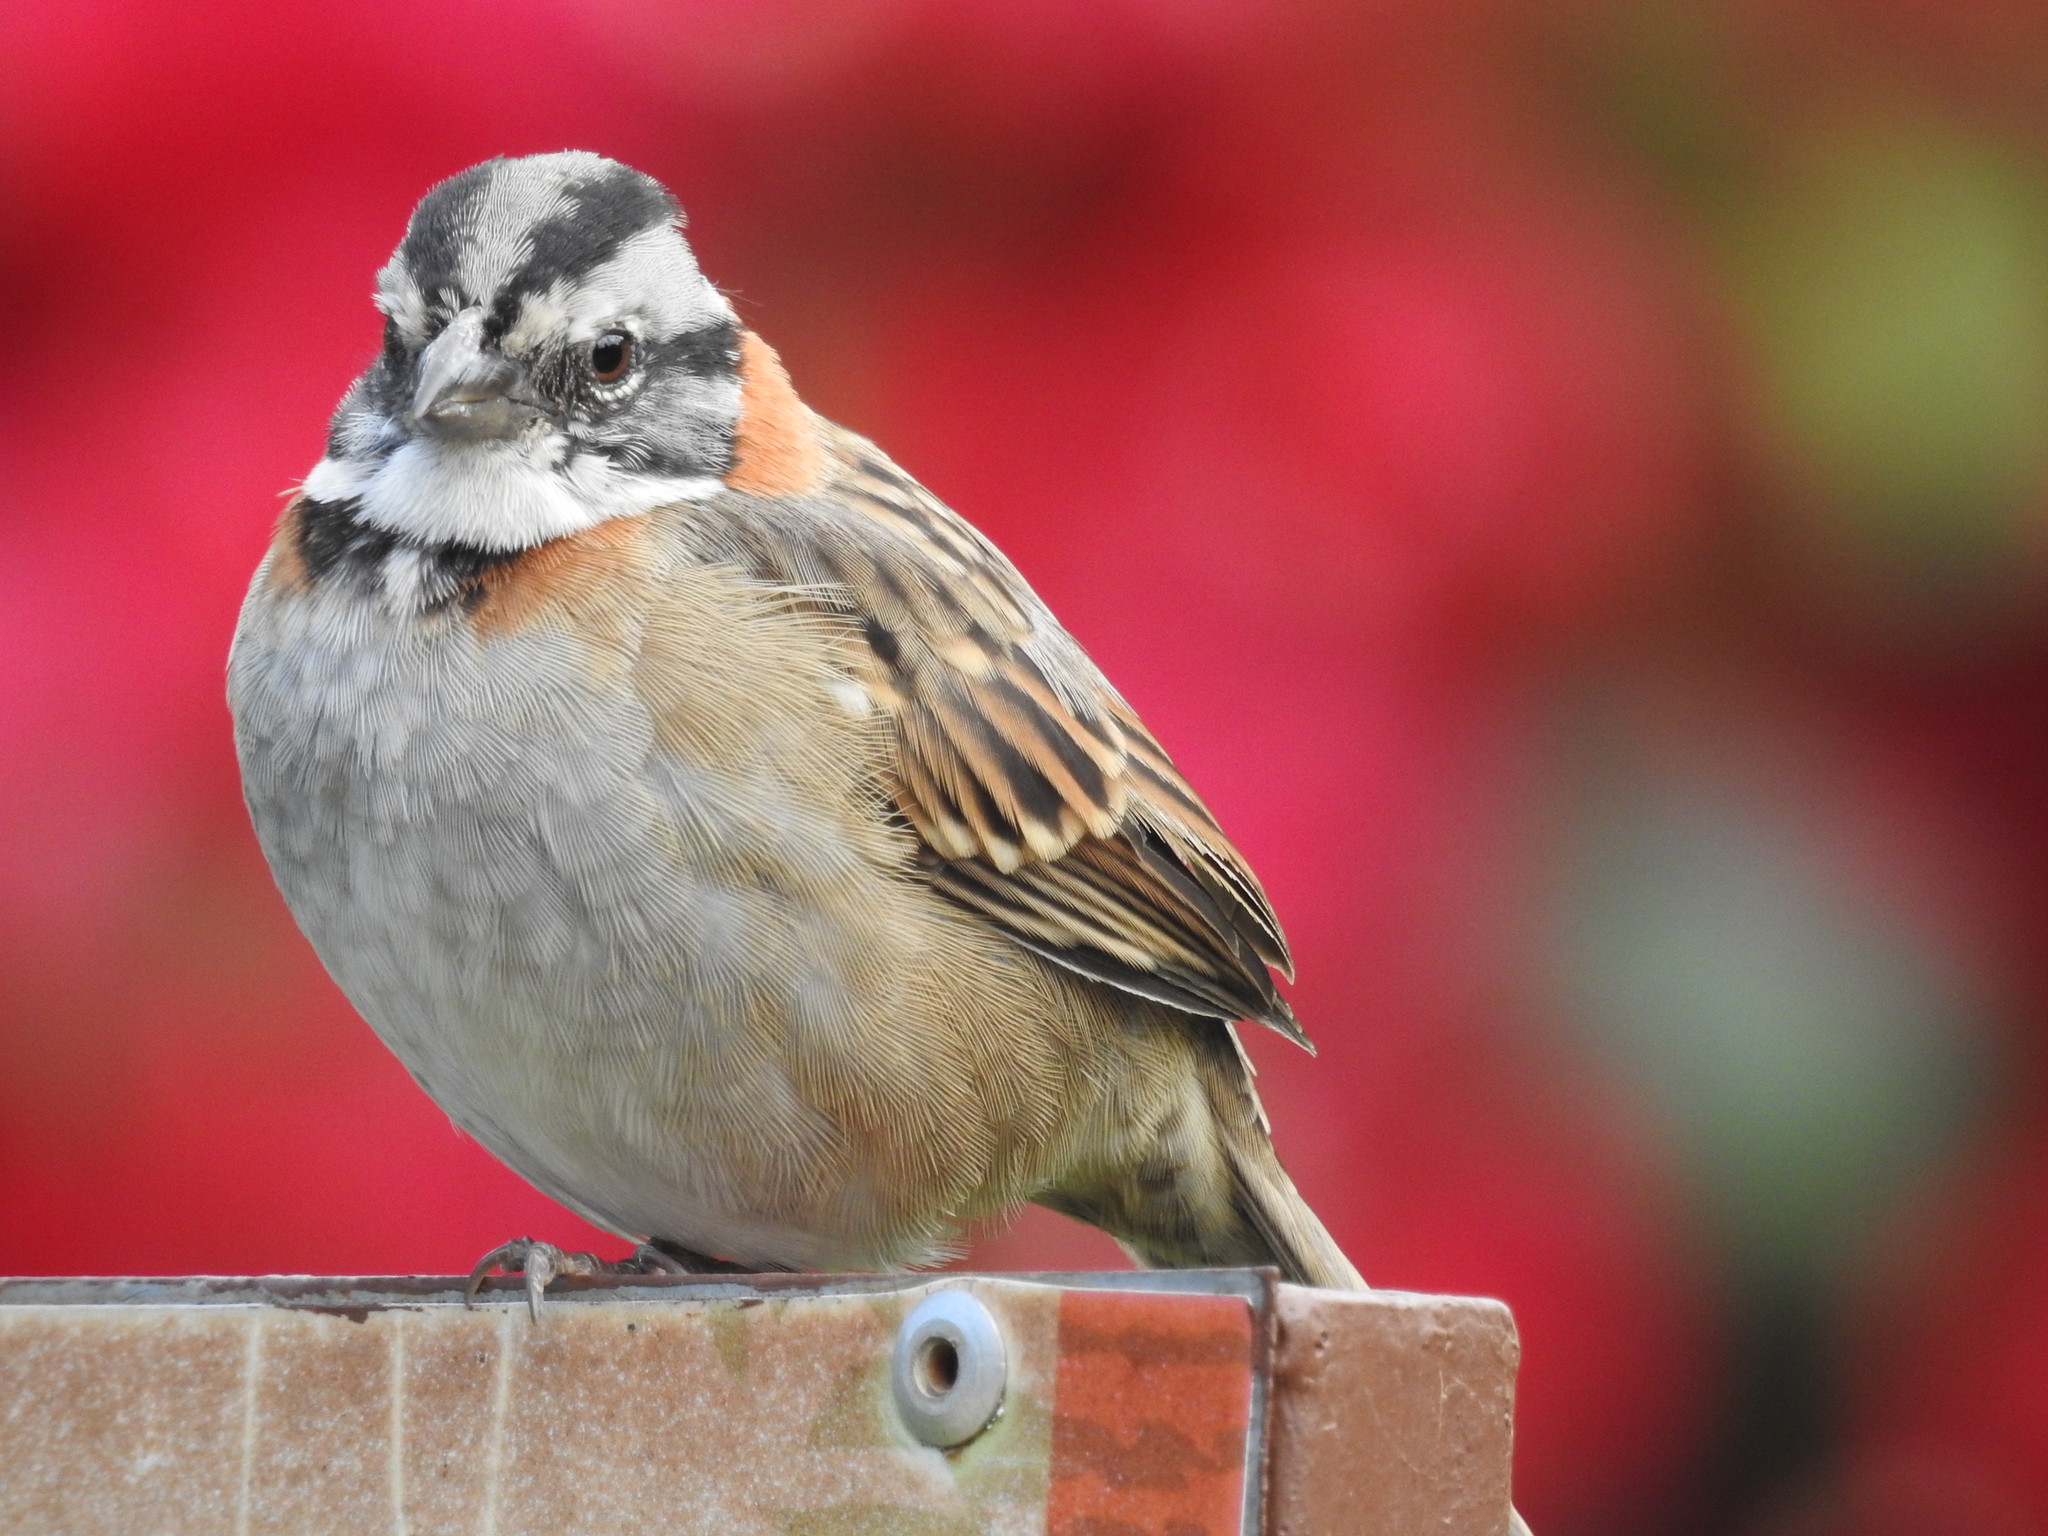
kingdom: Animalia
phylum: Chordata
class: Aves
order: Passeriformes
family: Passerellidae
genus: Zonotrichia
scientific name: Zonotrichia capensis
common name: Rufous-collared sparrow
